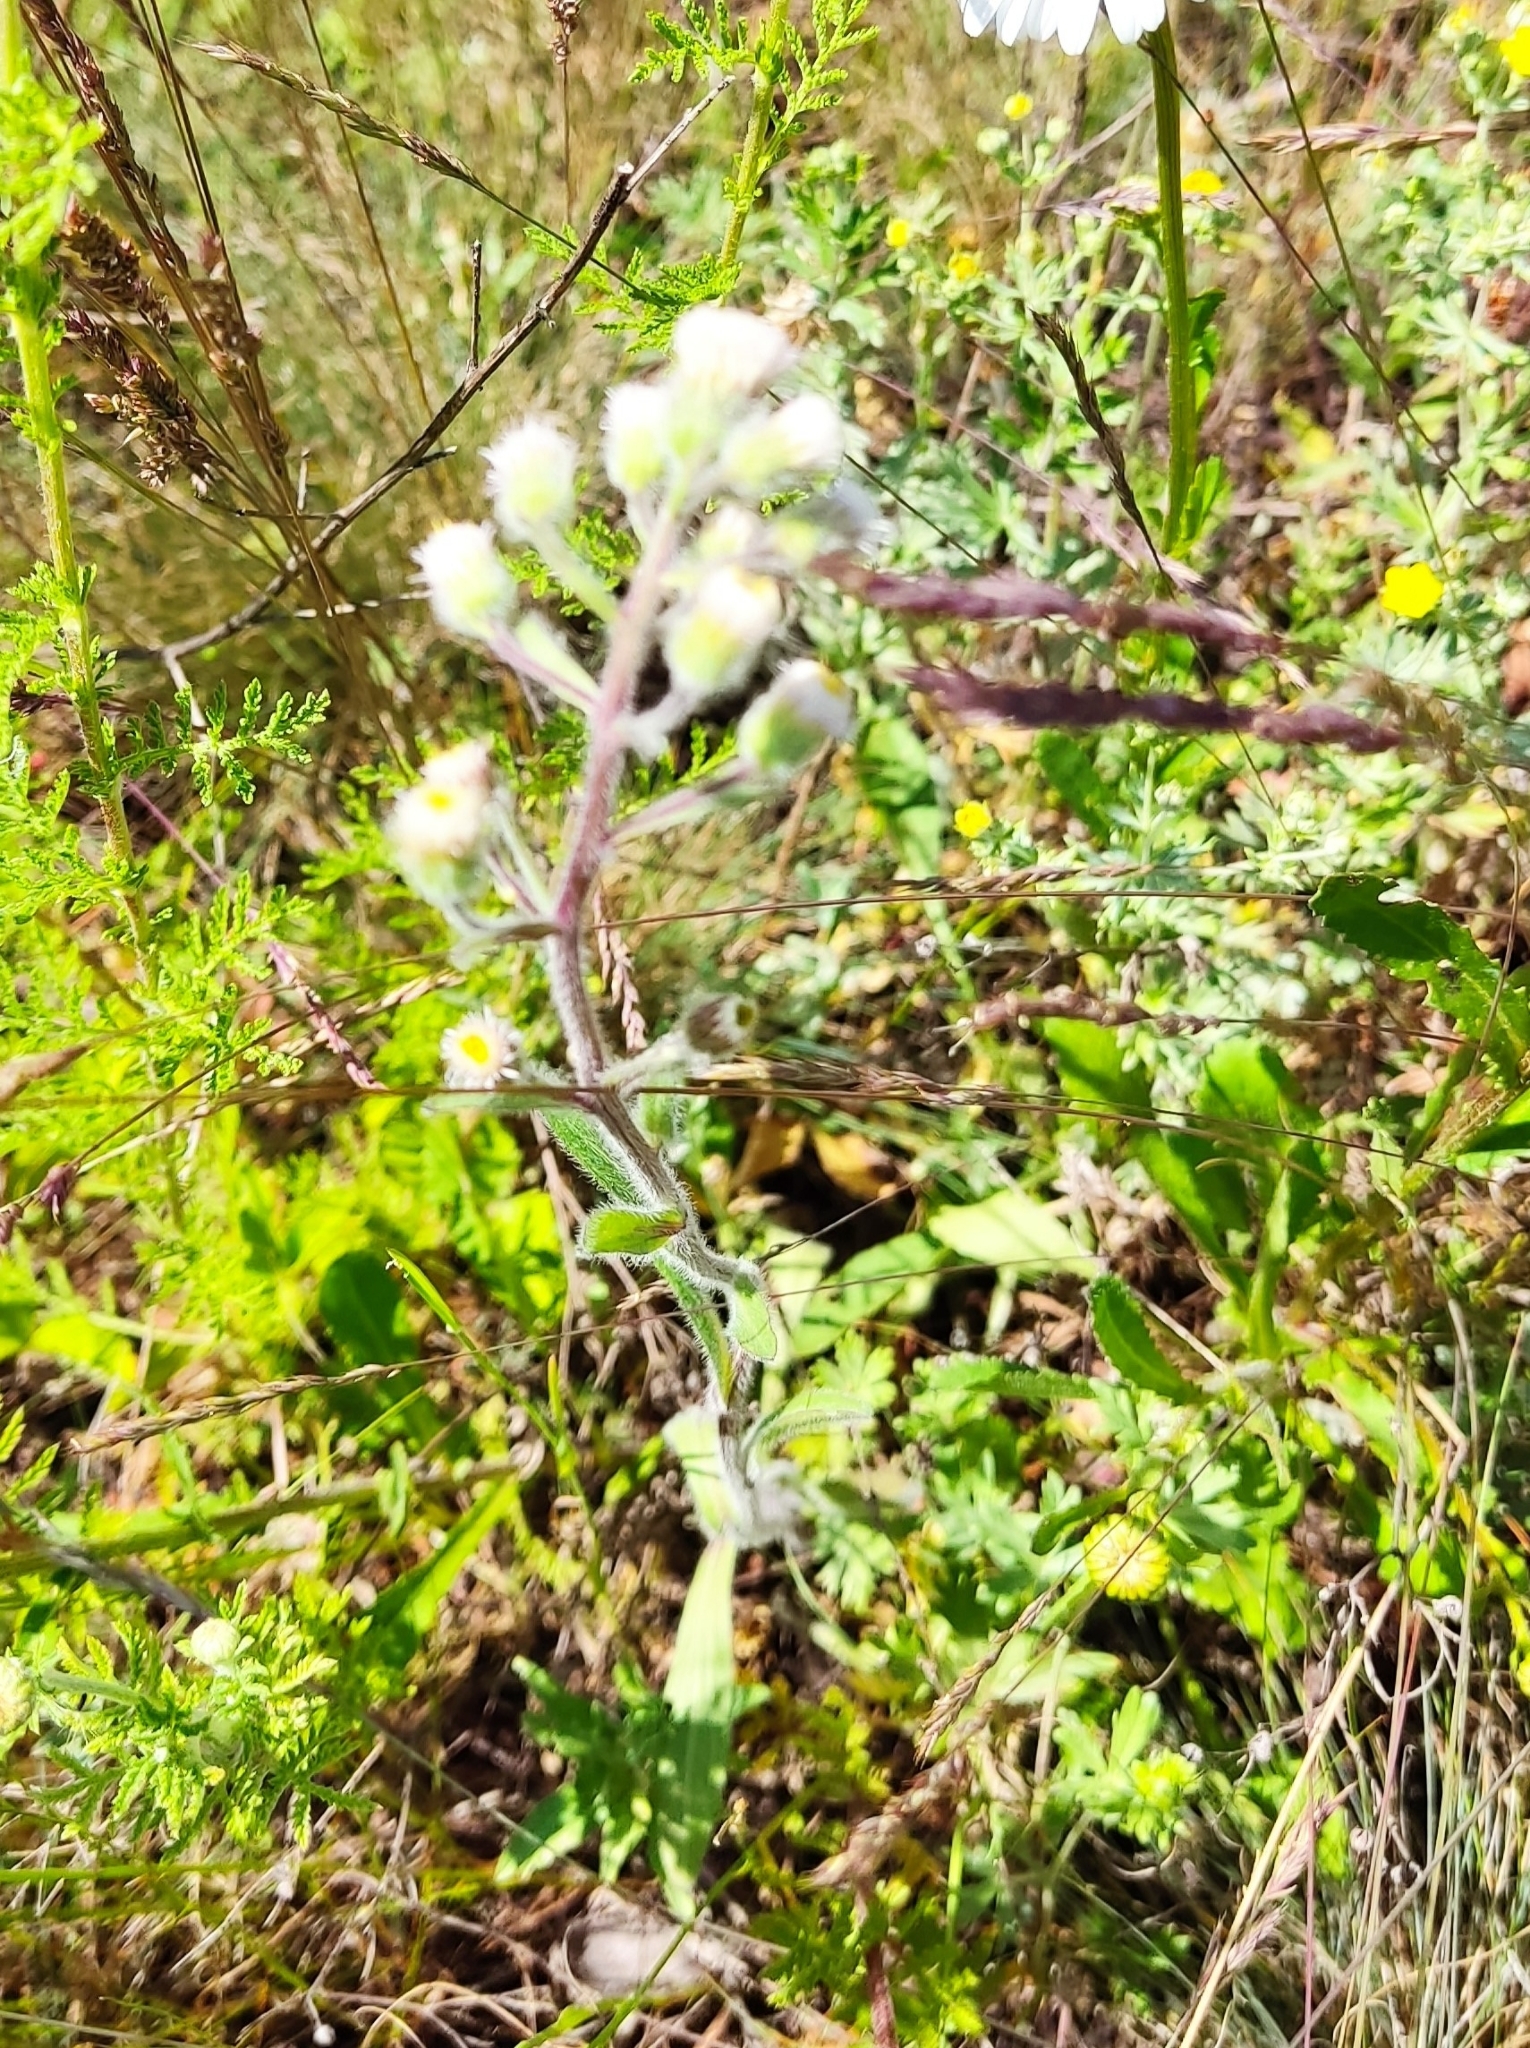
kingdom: Plantae
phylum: Tracheophyta
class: Magnoliopsida
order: Asterales
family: Asteraceae
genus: Erigeron
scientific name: Erigeron acris
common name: Blue fleabane
